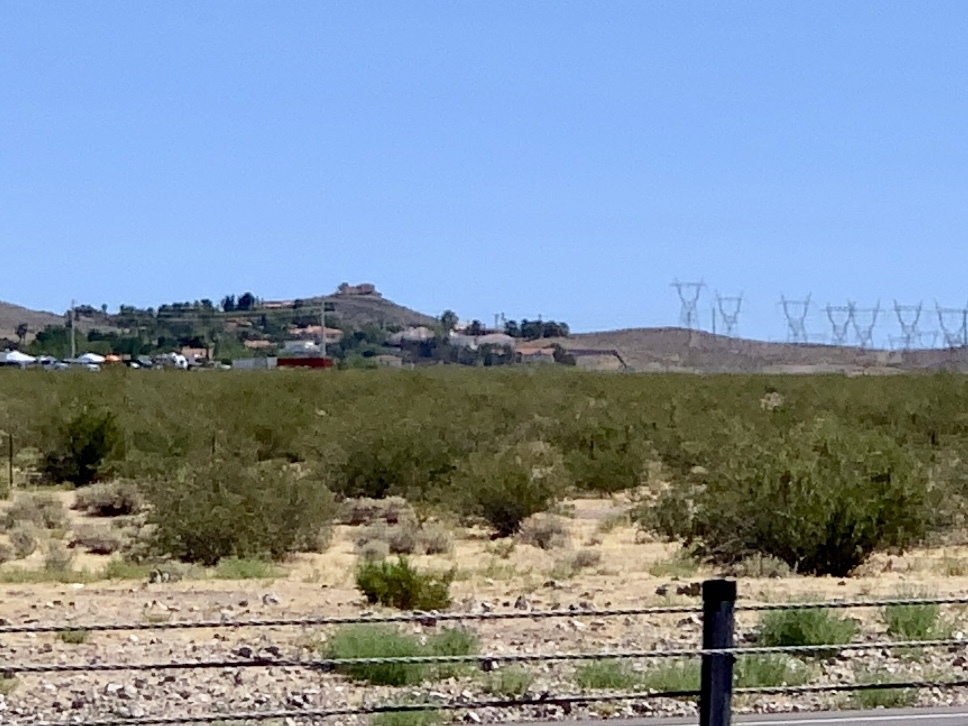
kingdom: Plantae
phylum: Tracheophyta
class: Magnoliopsida
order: Zygophyllales
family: Zygophyllaceae
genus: Larrea
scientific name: Larrea tridentata
